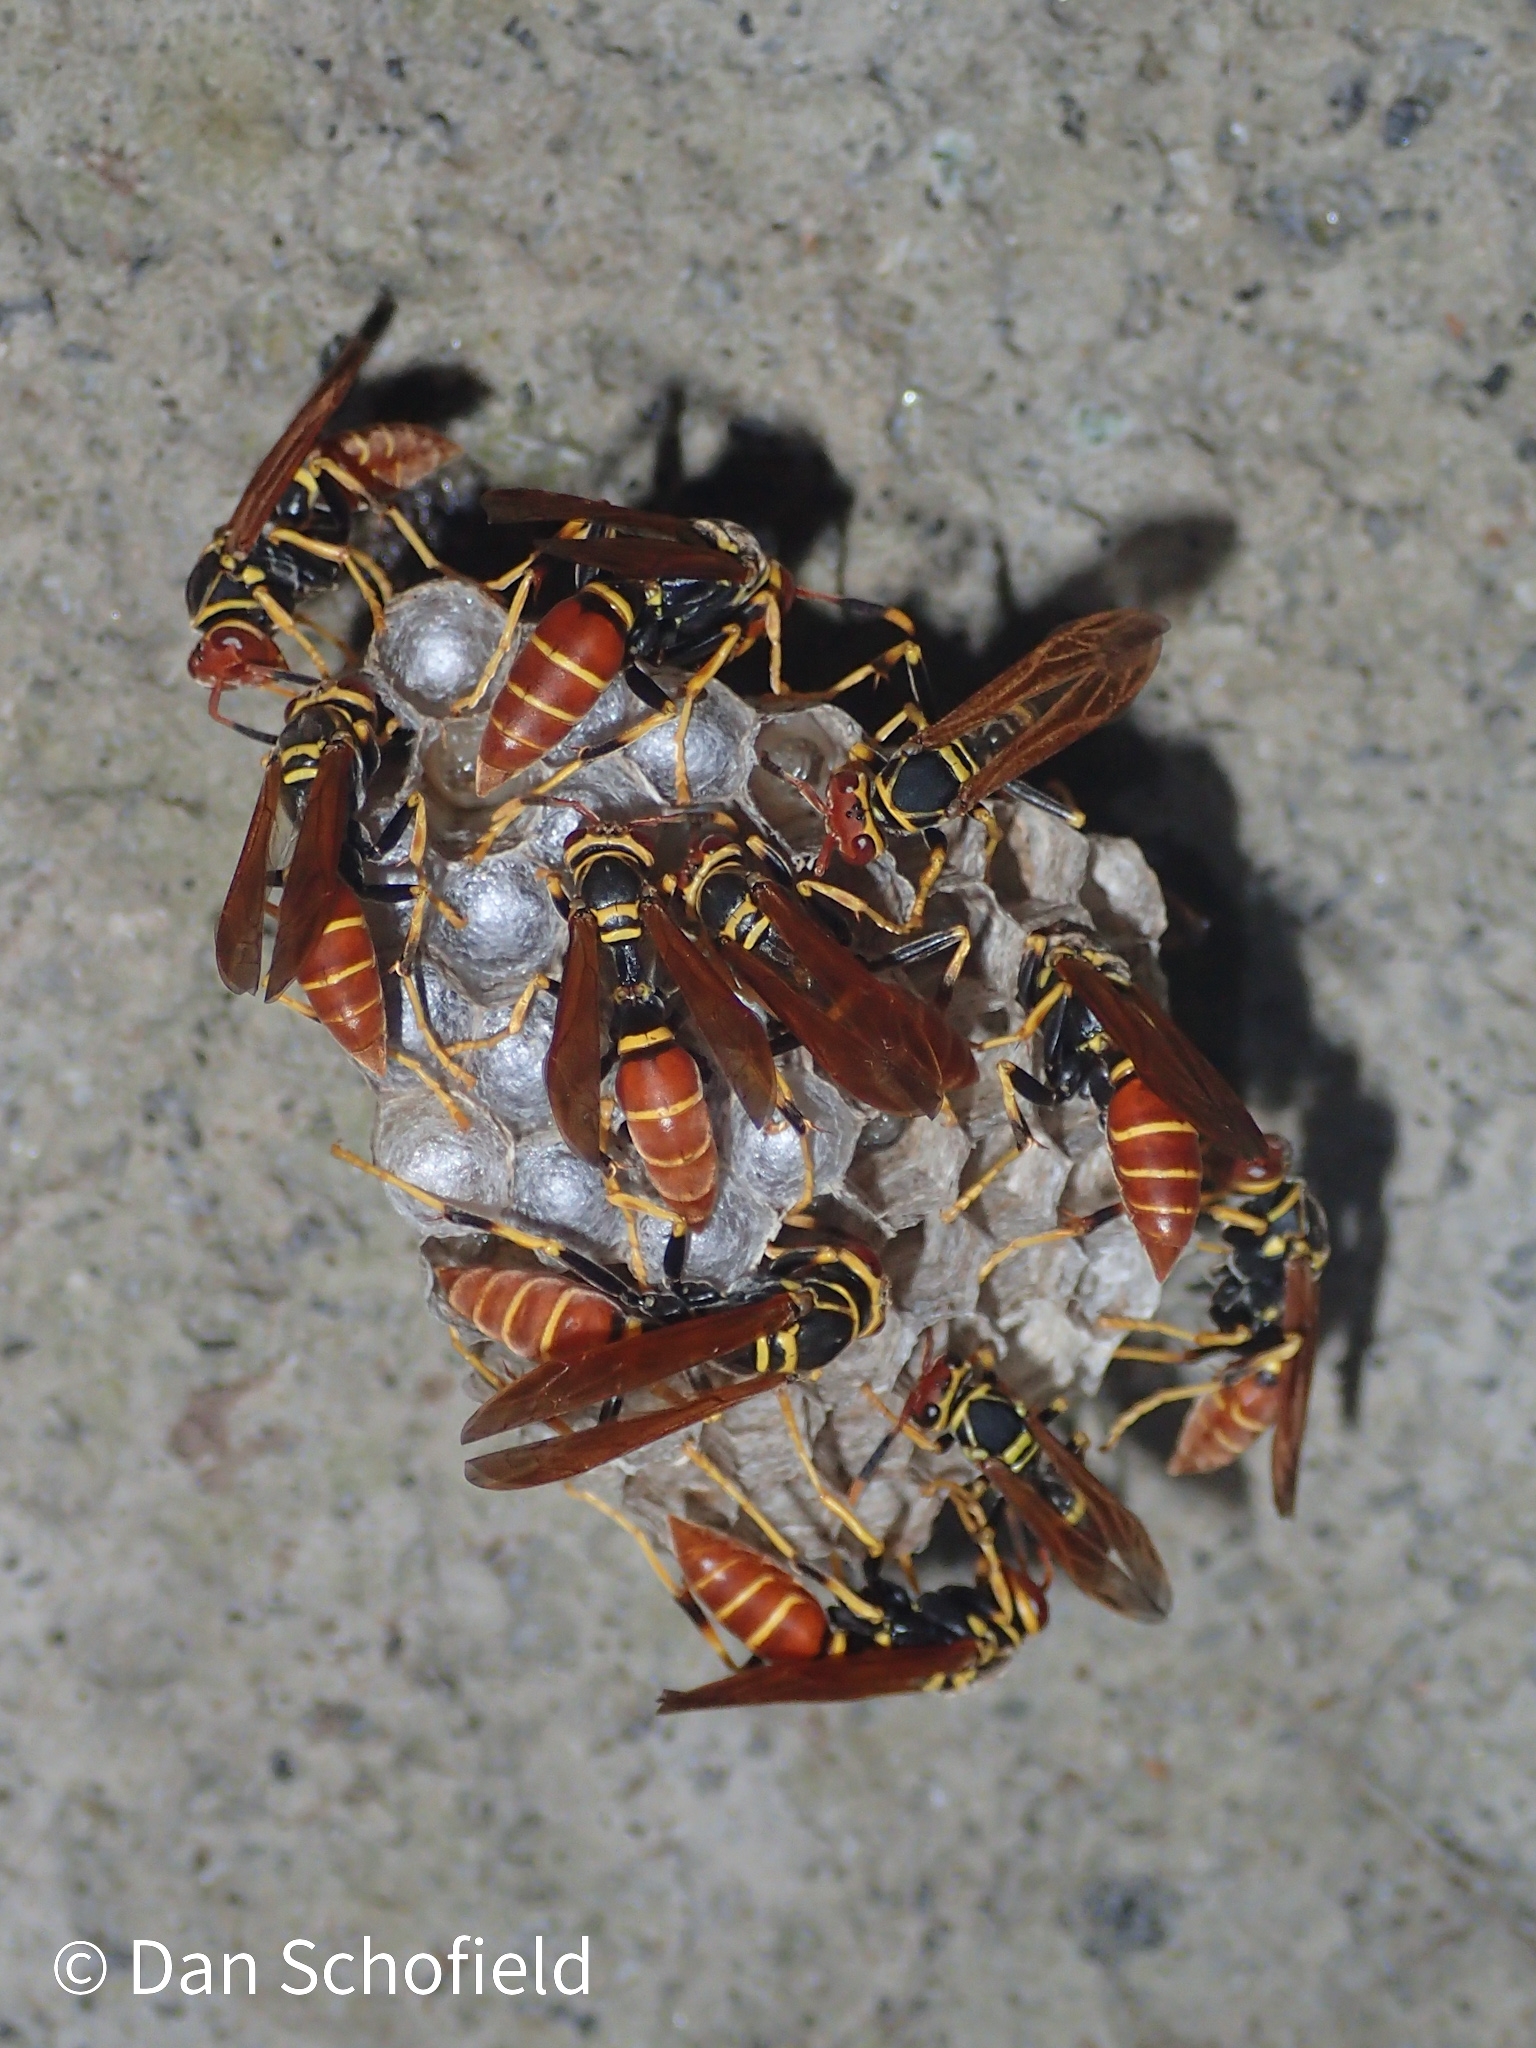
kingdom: Animalia
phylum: Arthropoda
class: Insecta
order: Hymenoptera
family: Eumenidae
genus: Polistes
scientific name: Polistes crinitus
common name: Jack spaniard
